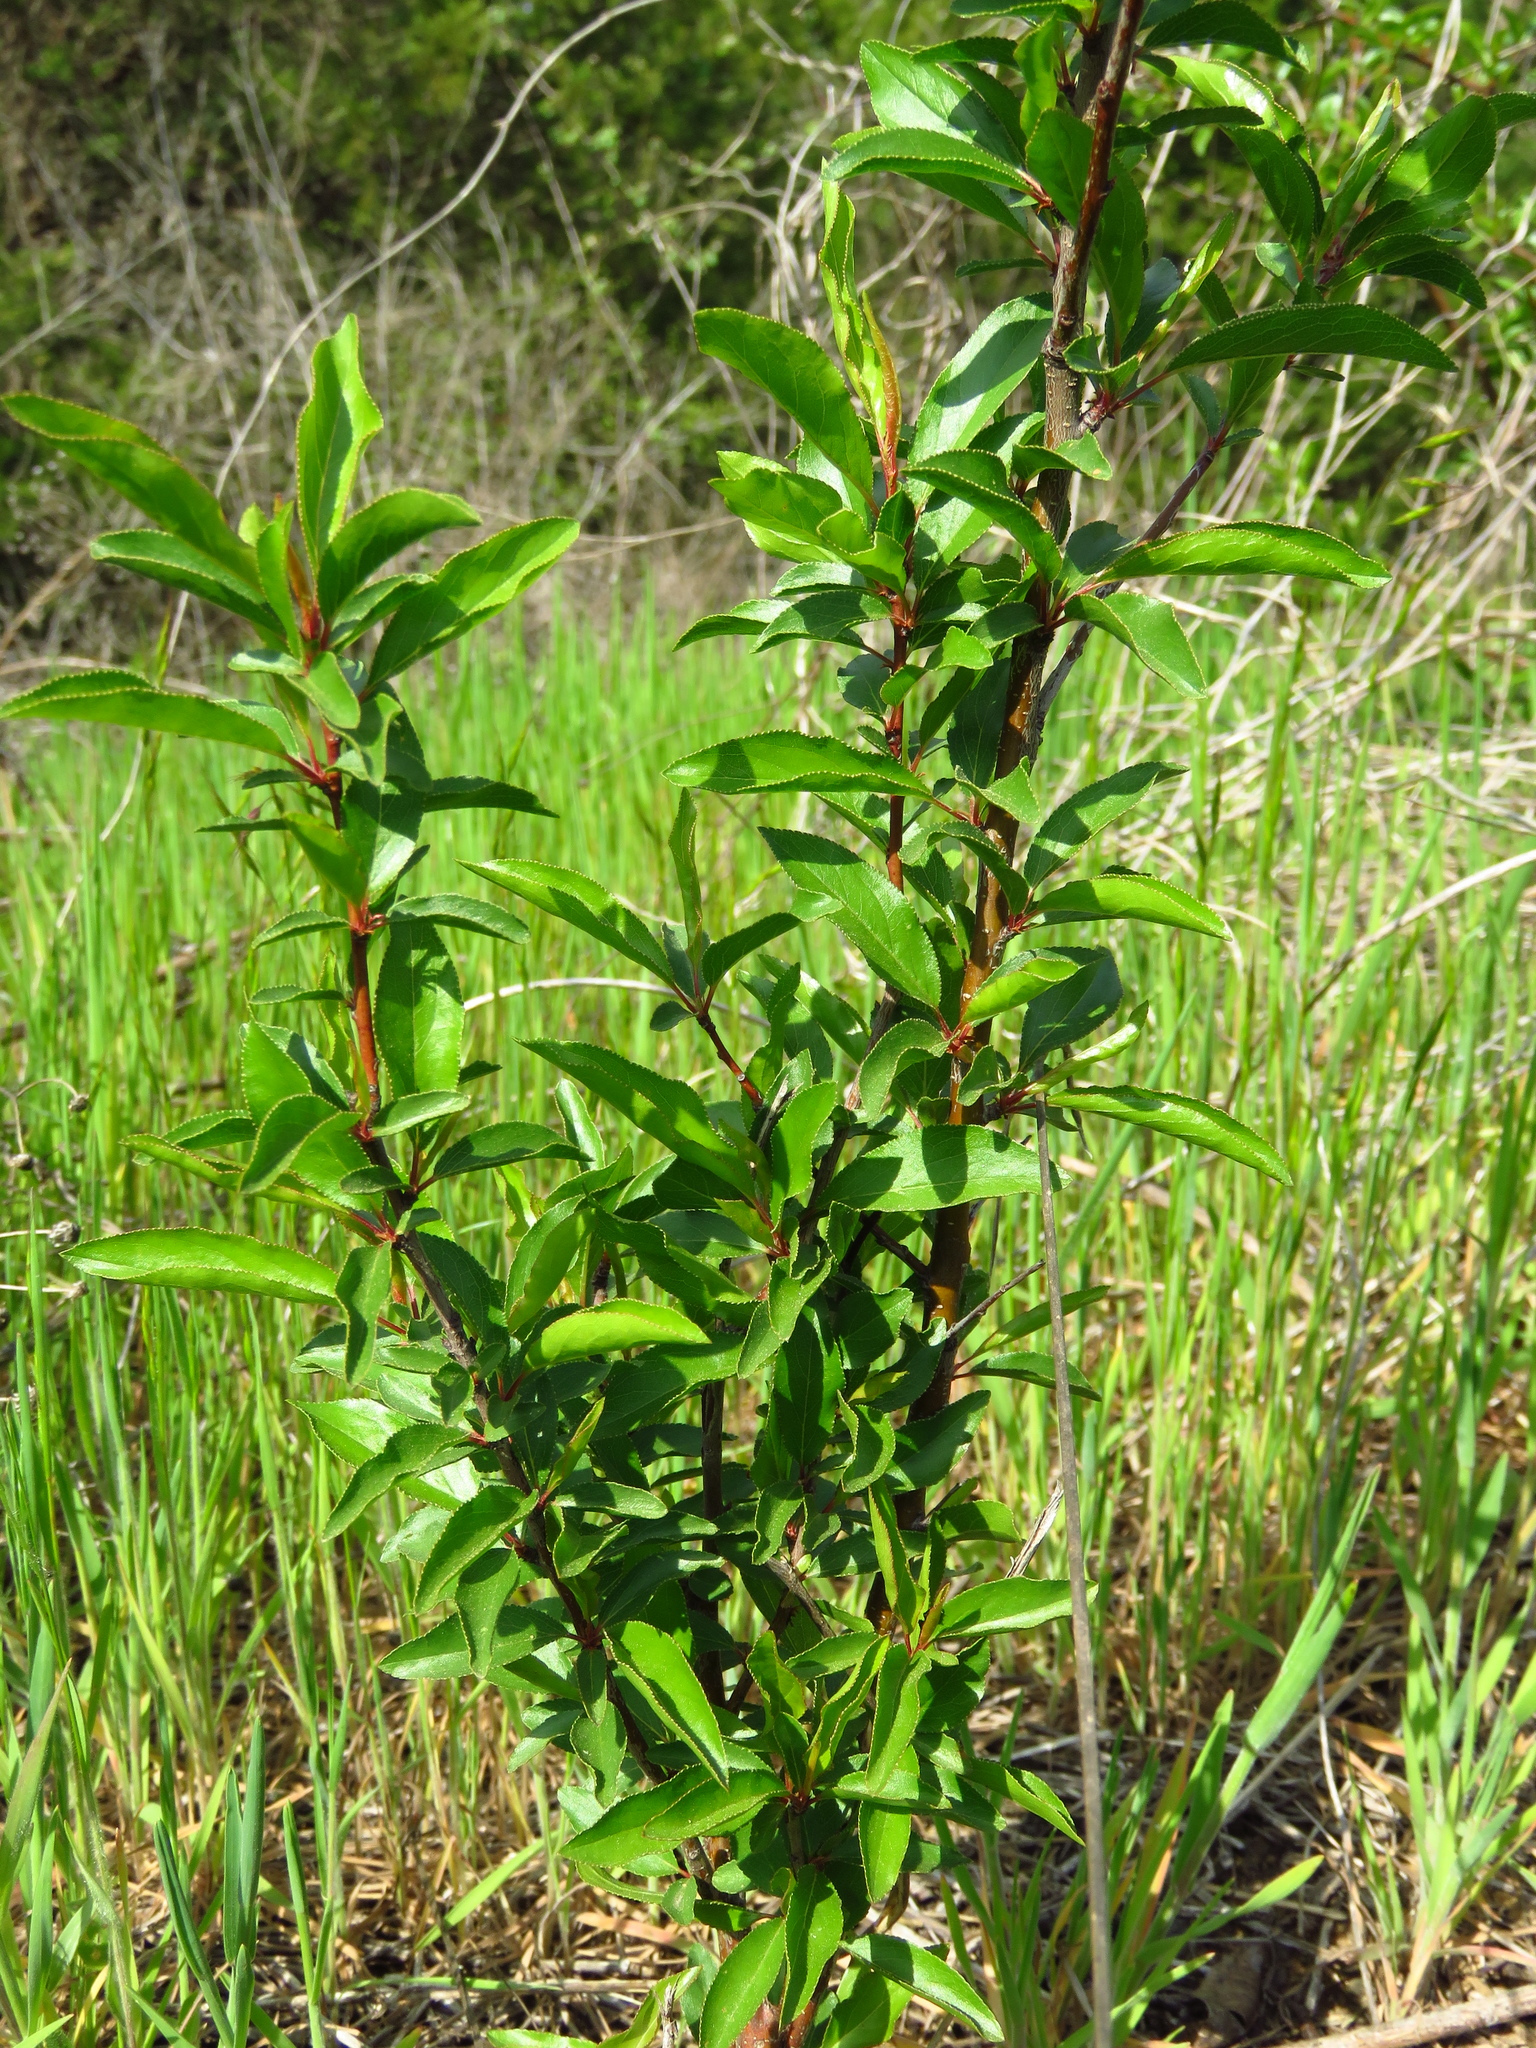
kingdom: Plantae
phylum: Tracheophyta
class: Magnoliopsida
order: Rosales
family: Rosaceae
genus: Prunus
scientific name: Prunus angustifolia
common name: Cherokee plum
